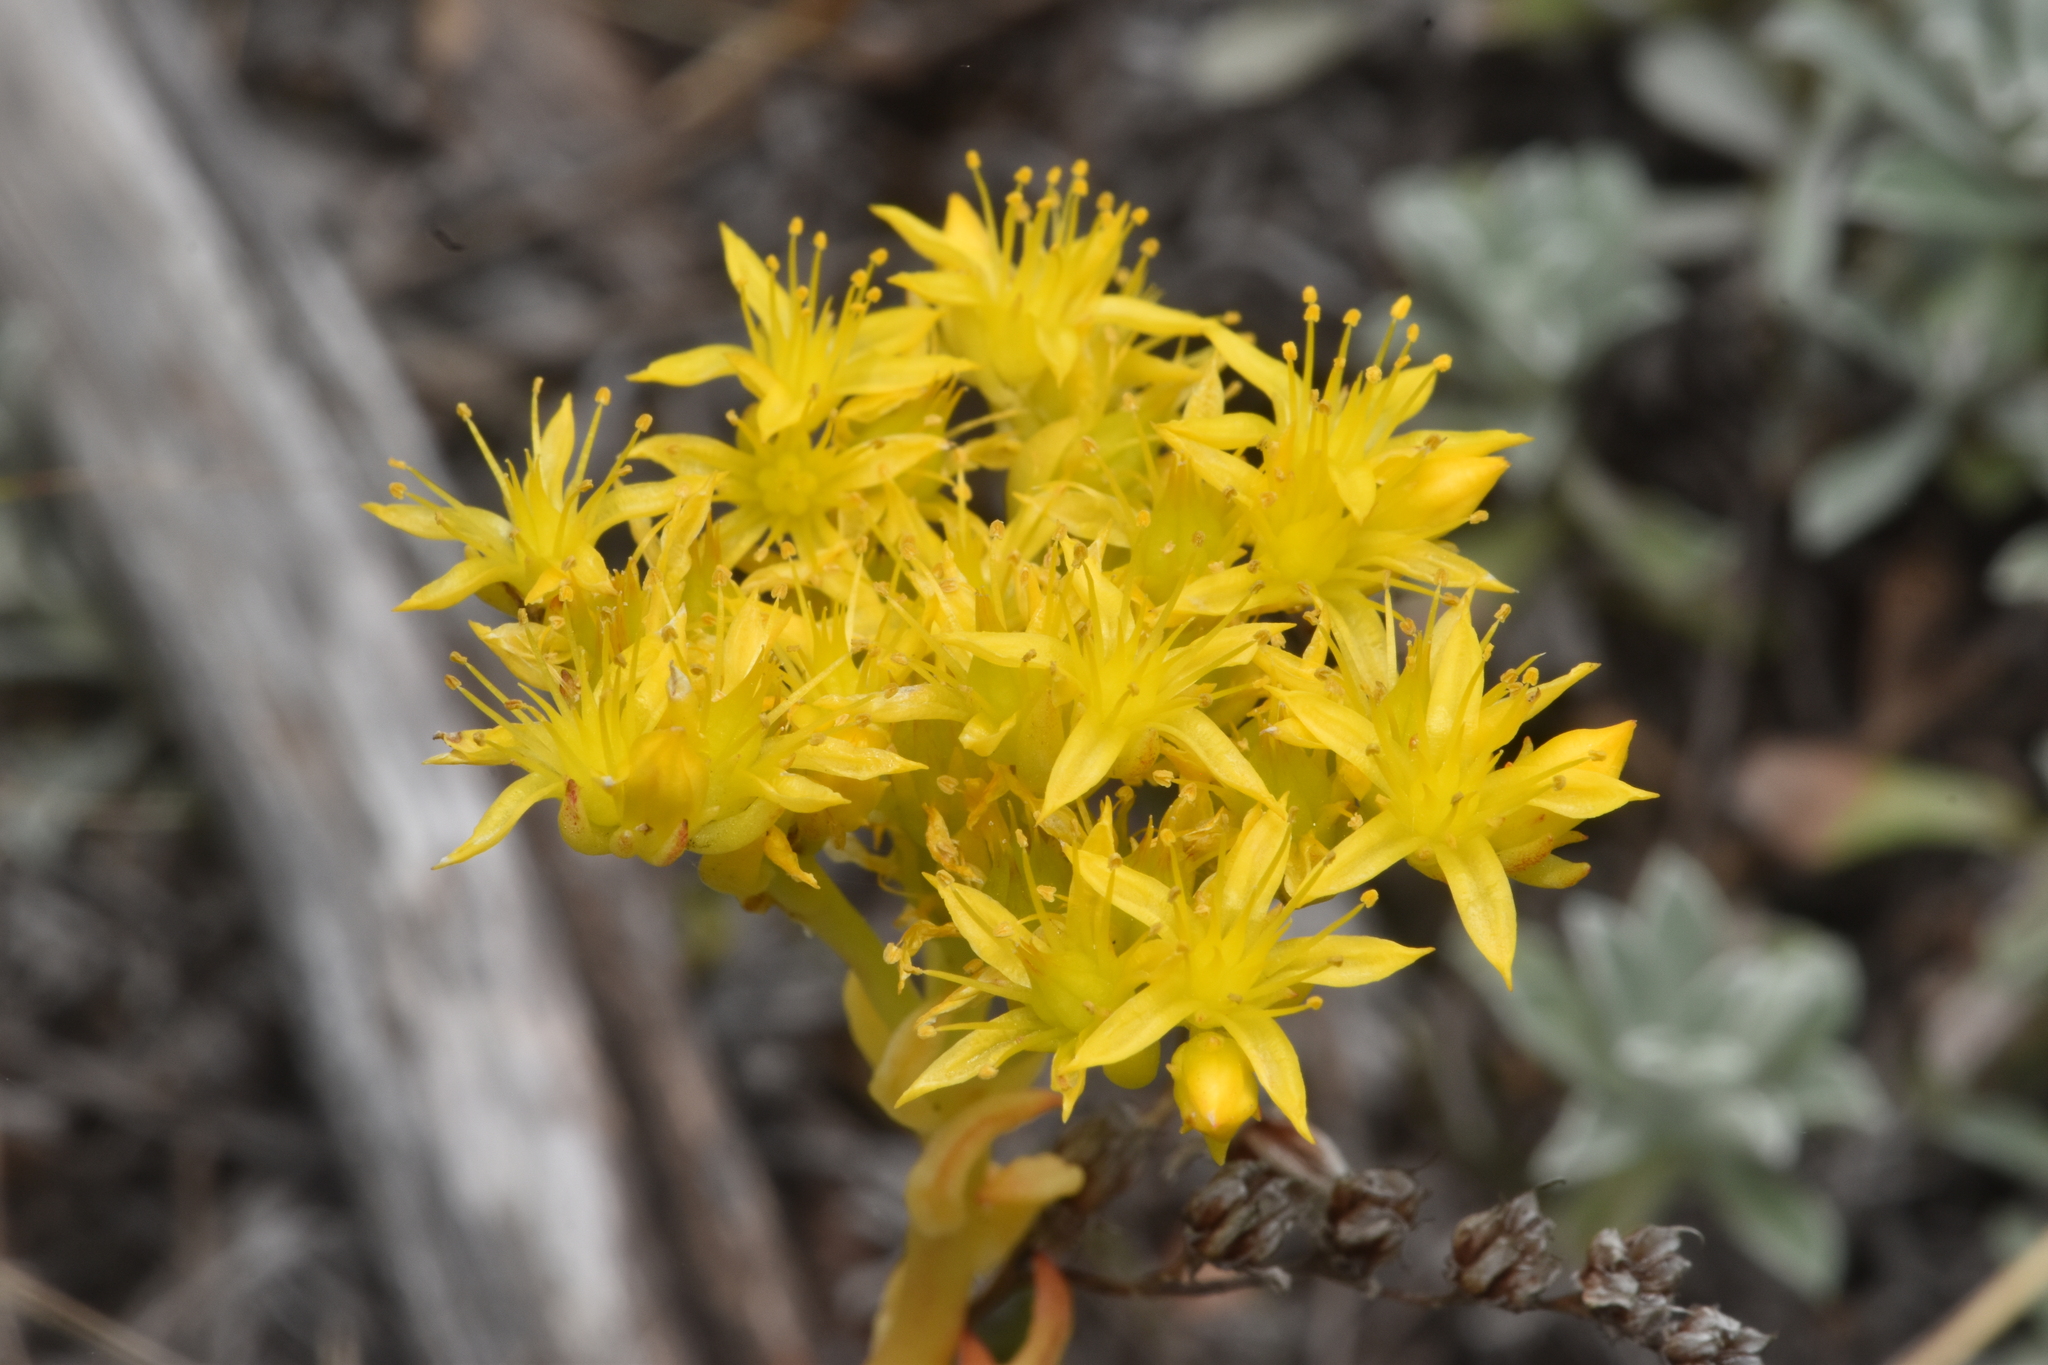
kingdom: Plantae
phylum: Tracheophyta
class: Magnoliopsida
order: Saxifragales
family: Crassulaceae
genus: Sedum
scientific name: Sedum lanceolatum
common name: Common stonecrop
